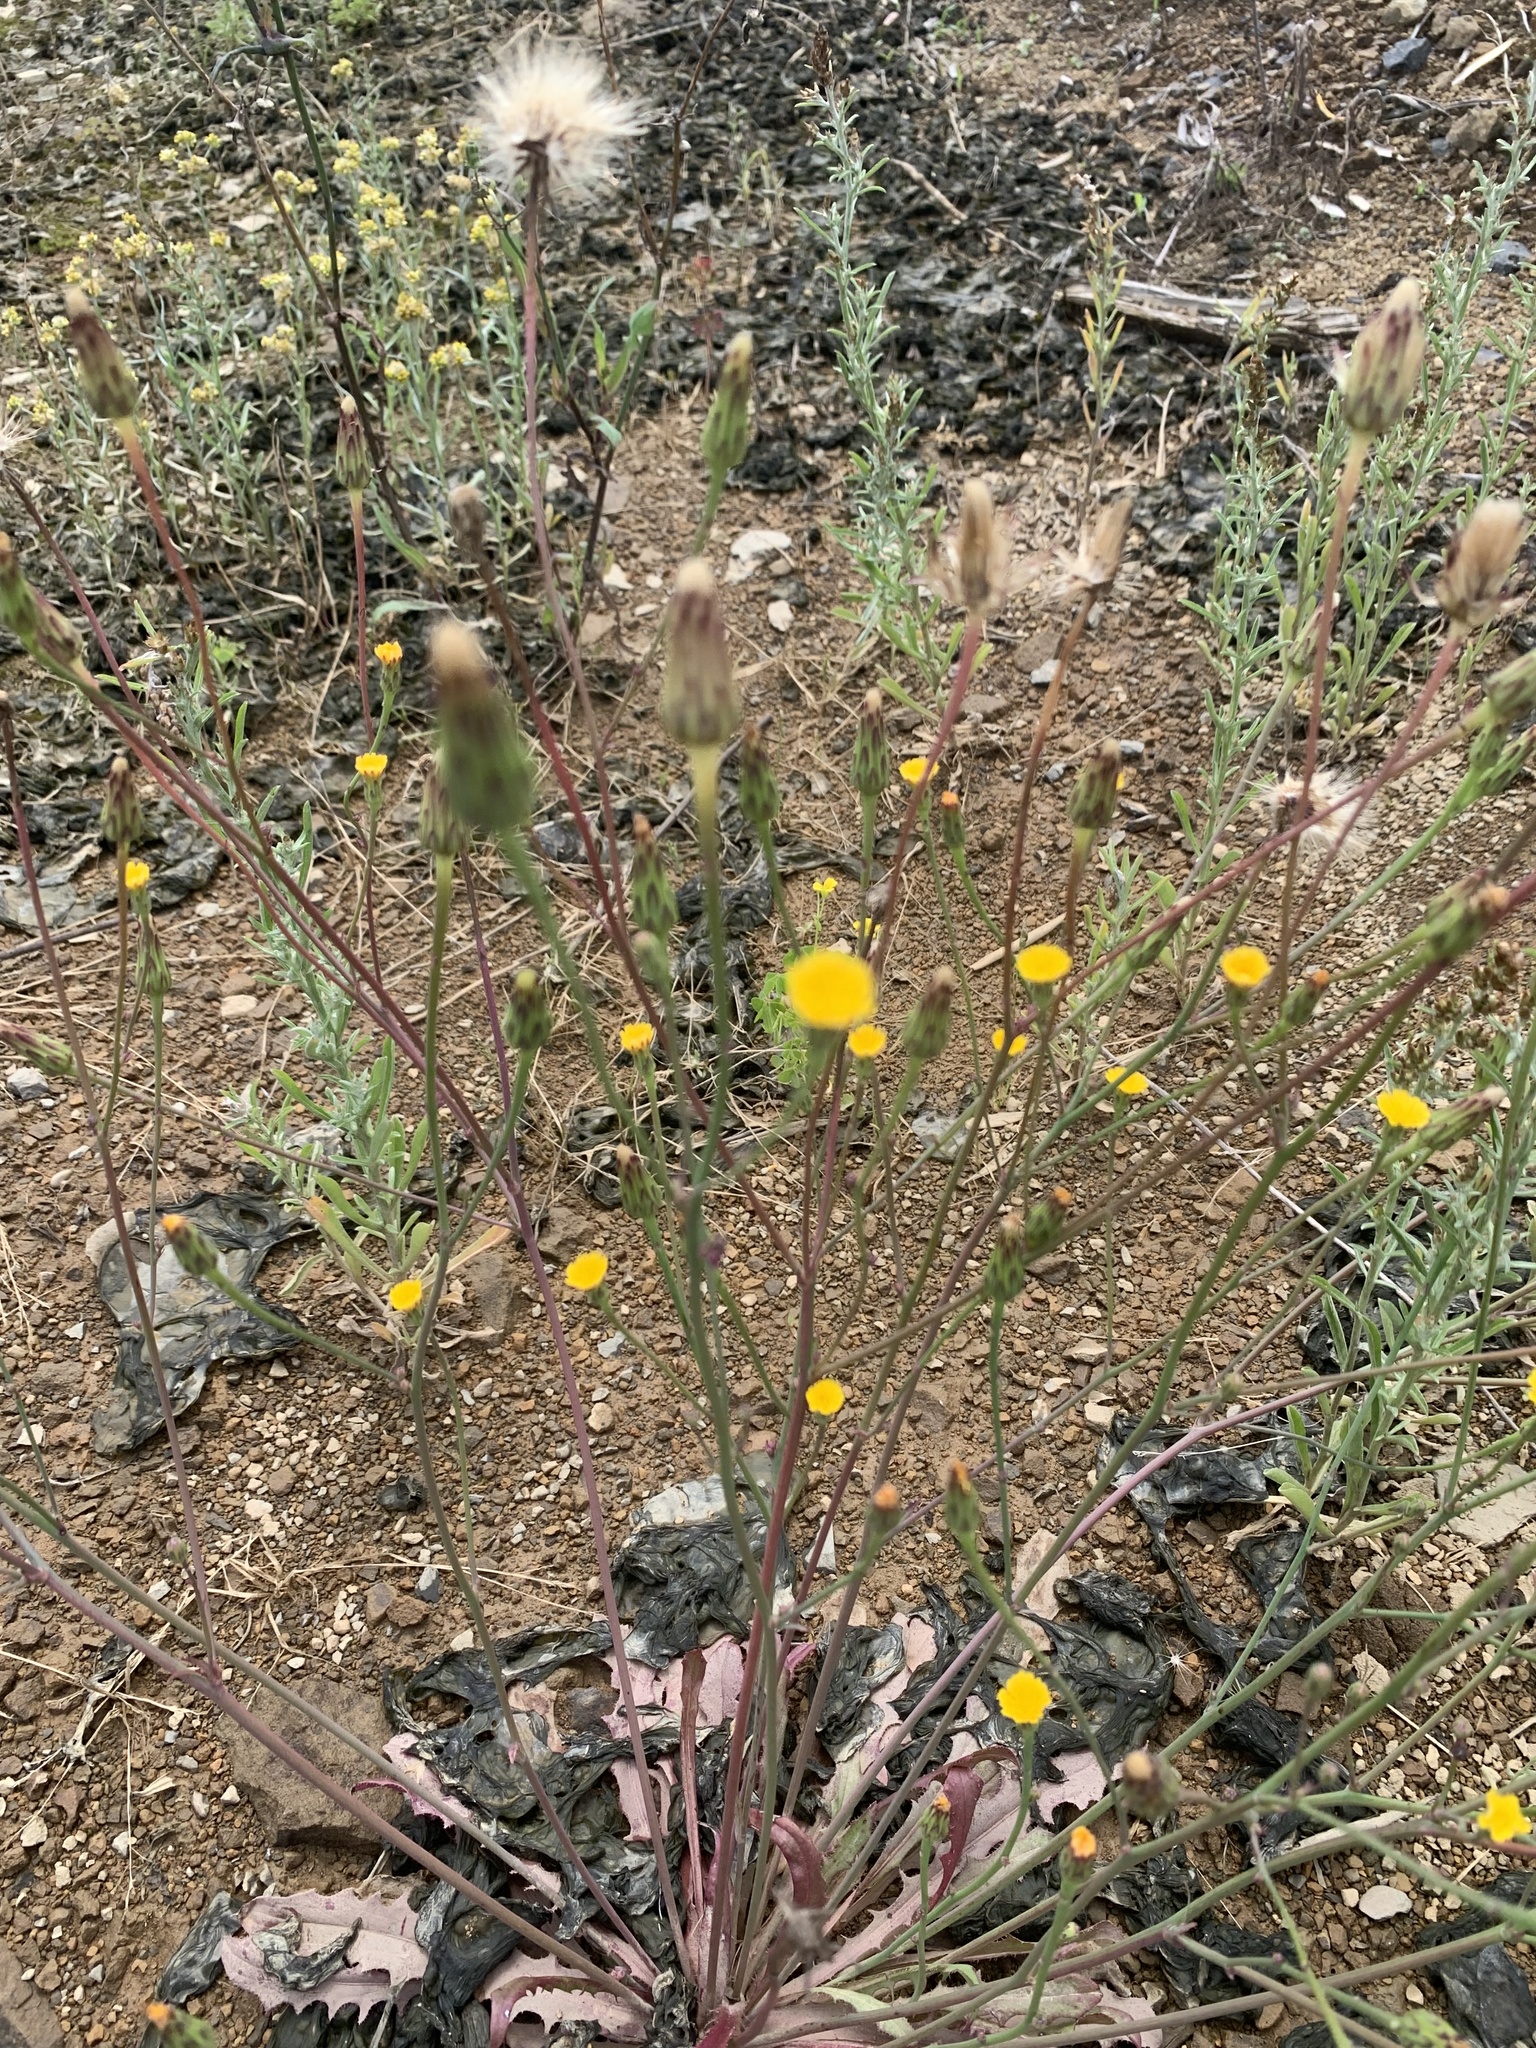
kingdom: Plantae
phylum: Tracheophyta
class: Magnoliopsida
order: Asterales
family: Asteraceae
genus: Hypochaeris
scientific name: Hypochaeris glabra
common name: Smooth catsear
